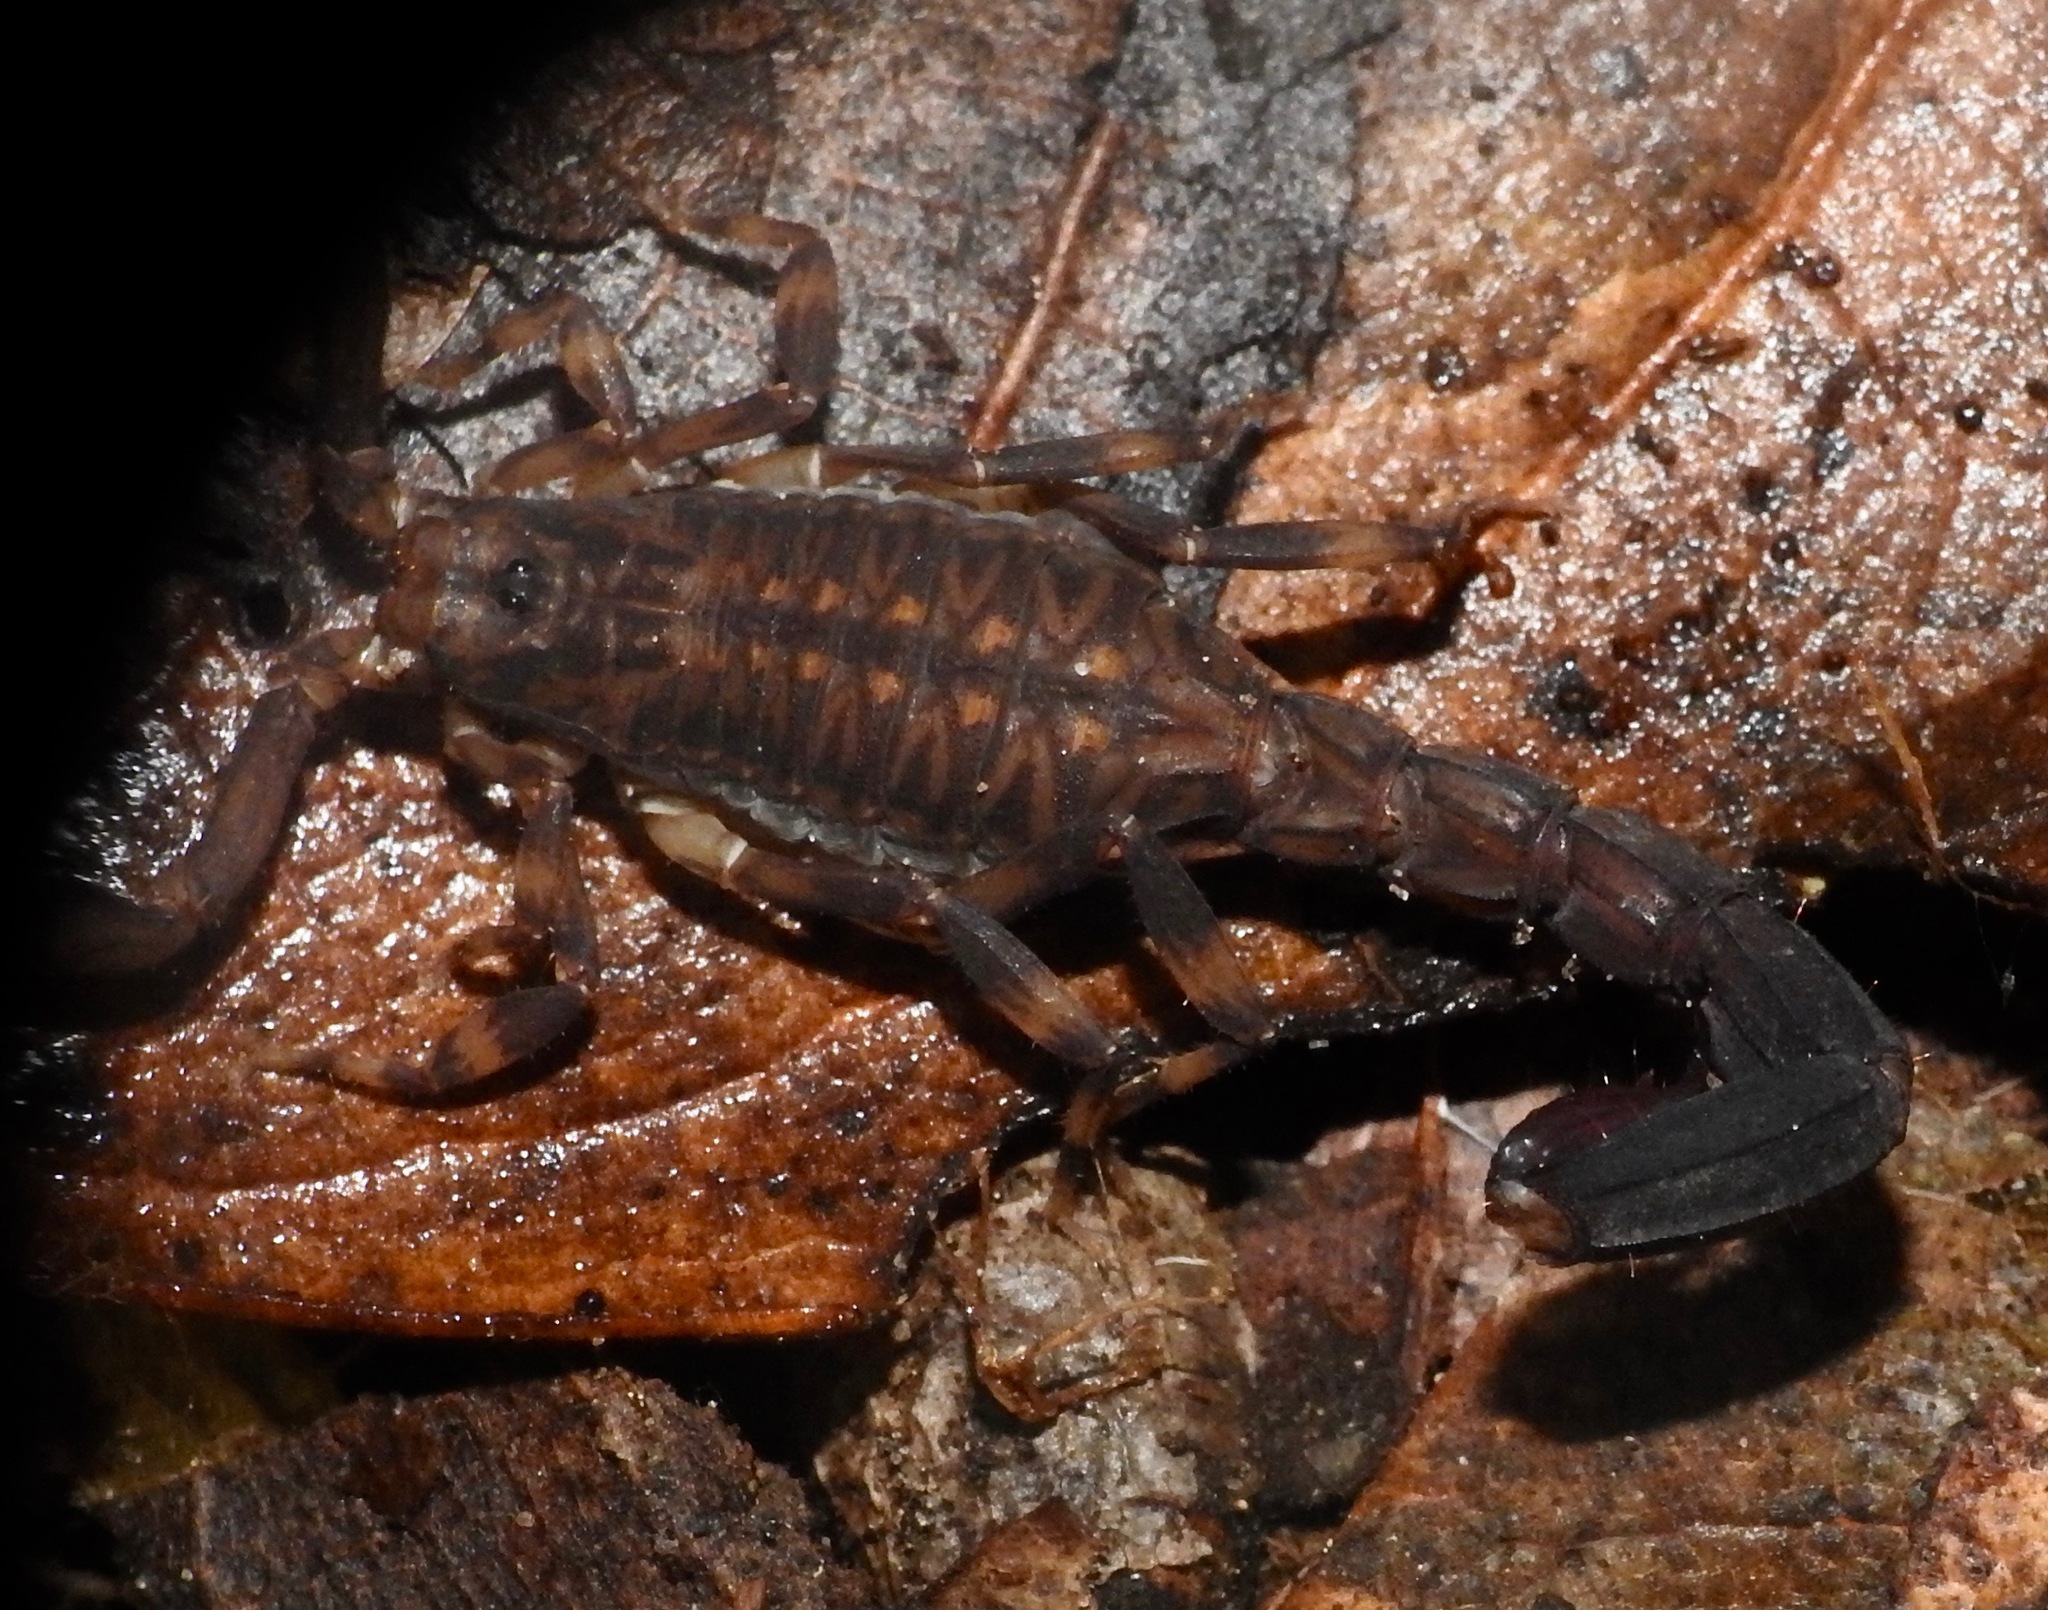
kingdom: Animalia
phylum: Arthropoda
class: Arachnida
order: Scorpiones
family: Buthidae
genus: Ananteris
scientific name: Ananteris tolimana
